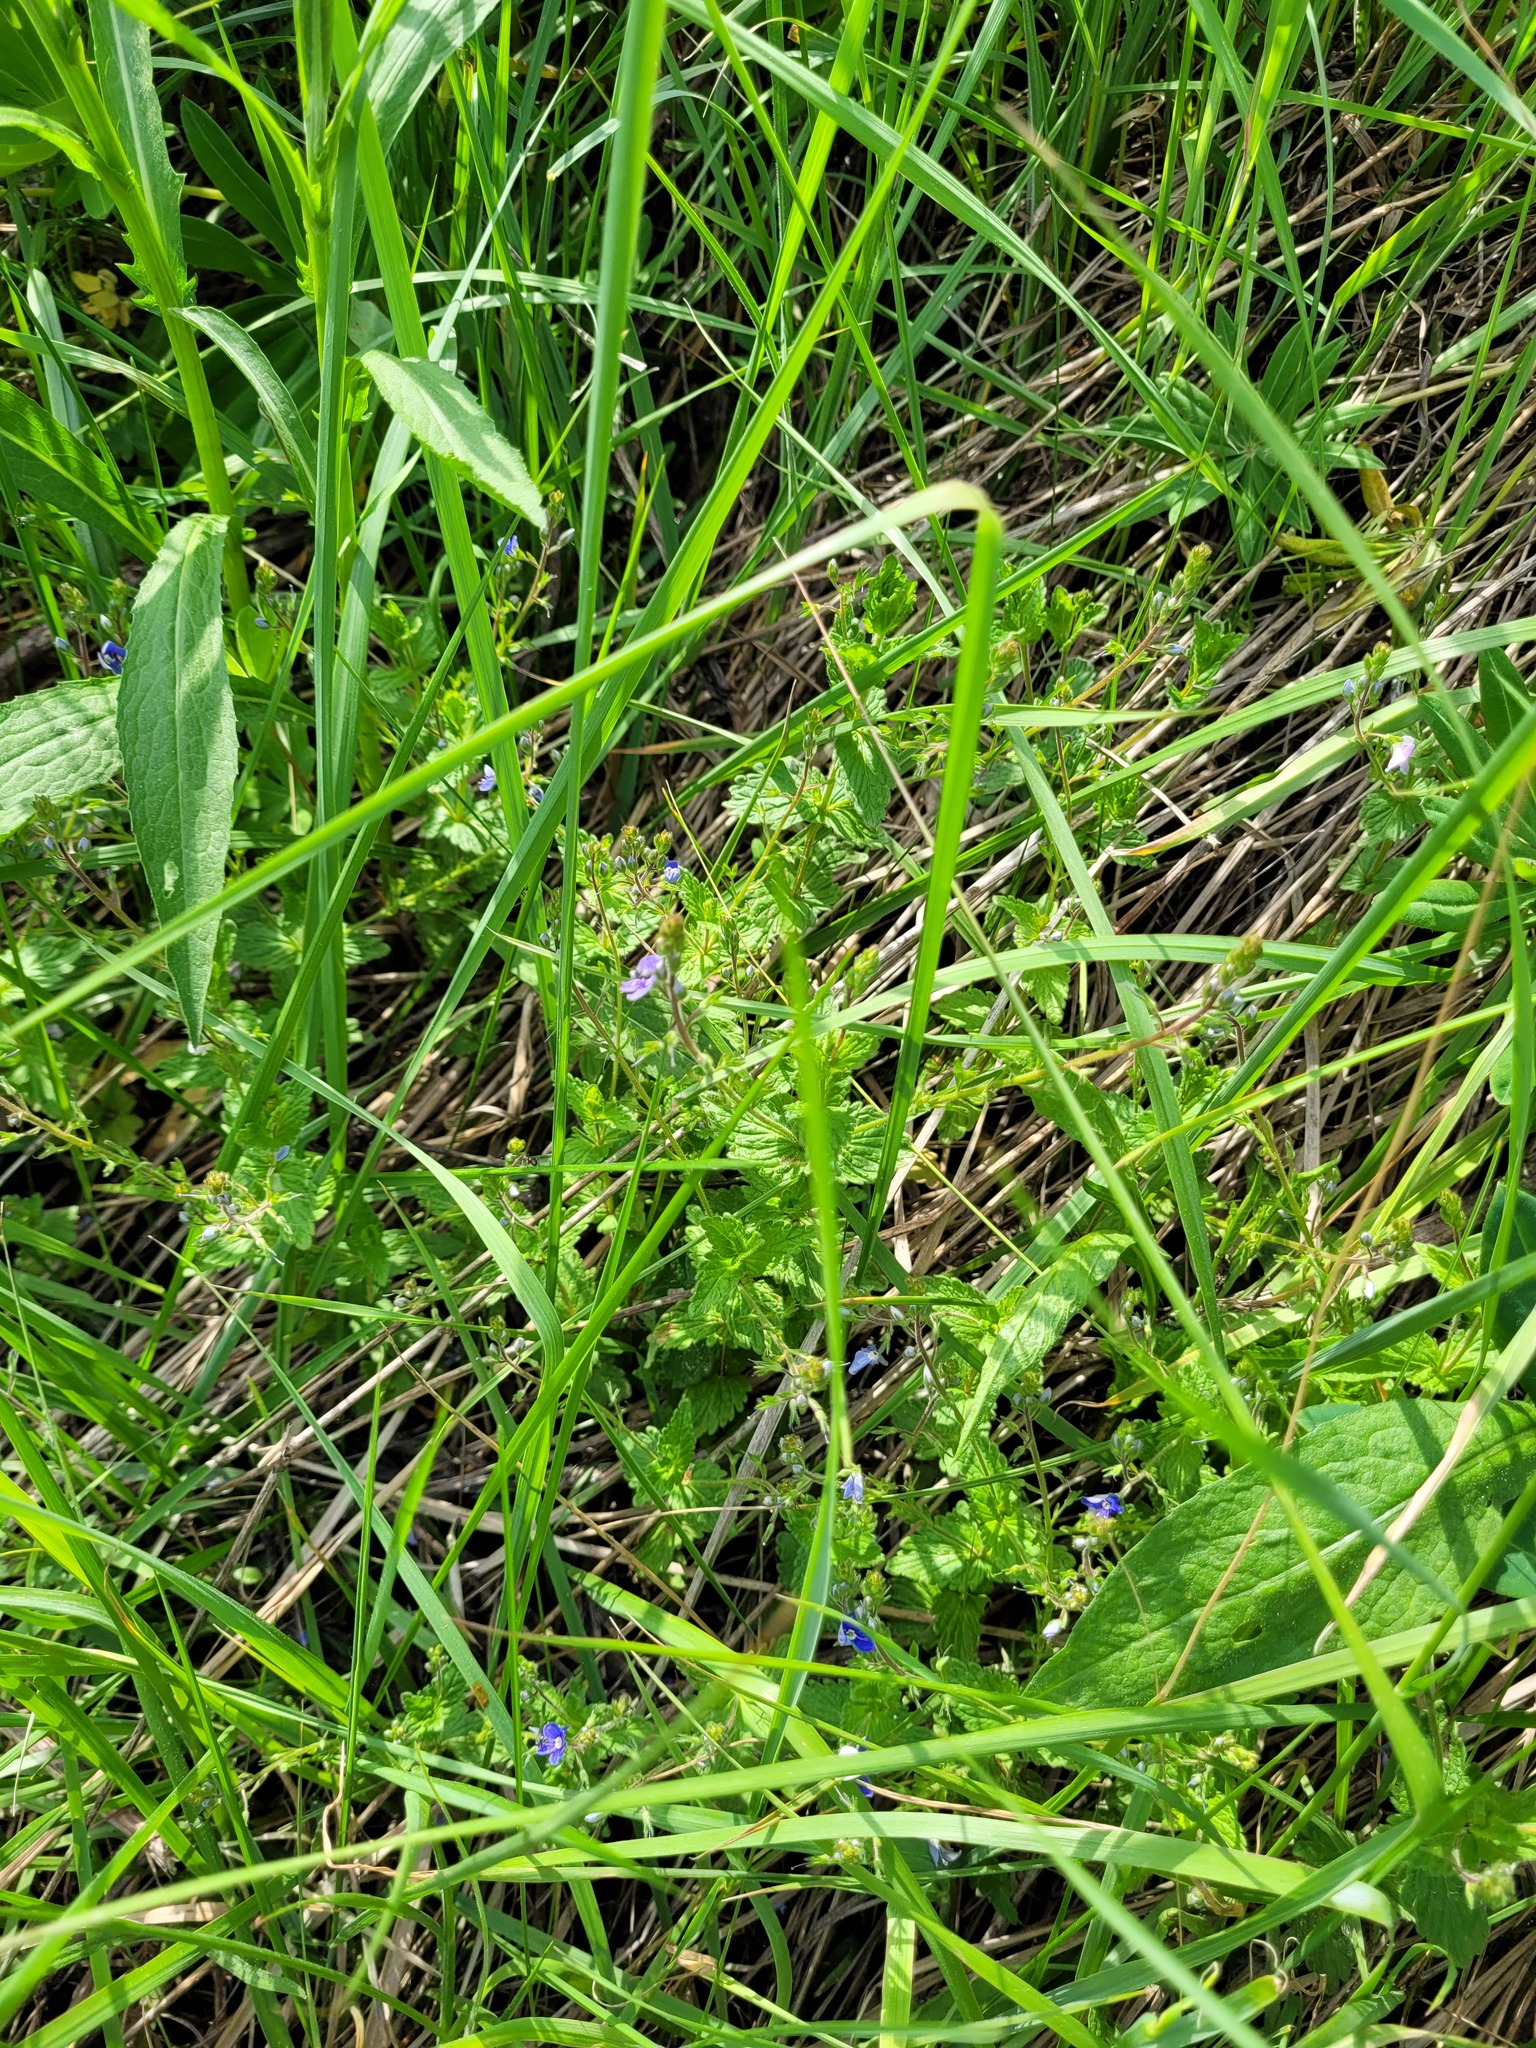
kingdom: Plantae
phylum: Tracheophyta
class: Magnoliopsida
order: Lamiales
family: Plantaginaceae
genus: Veronica
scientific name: Veronica chamaedrys
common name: Germander speedwell
